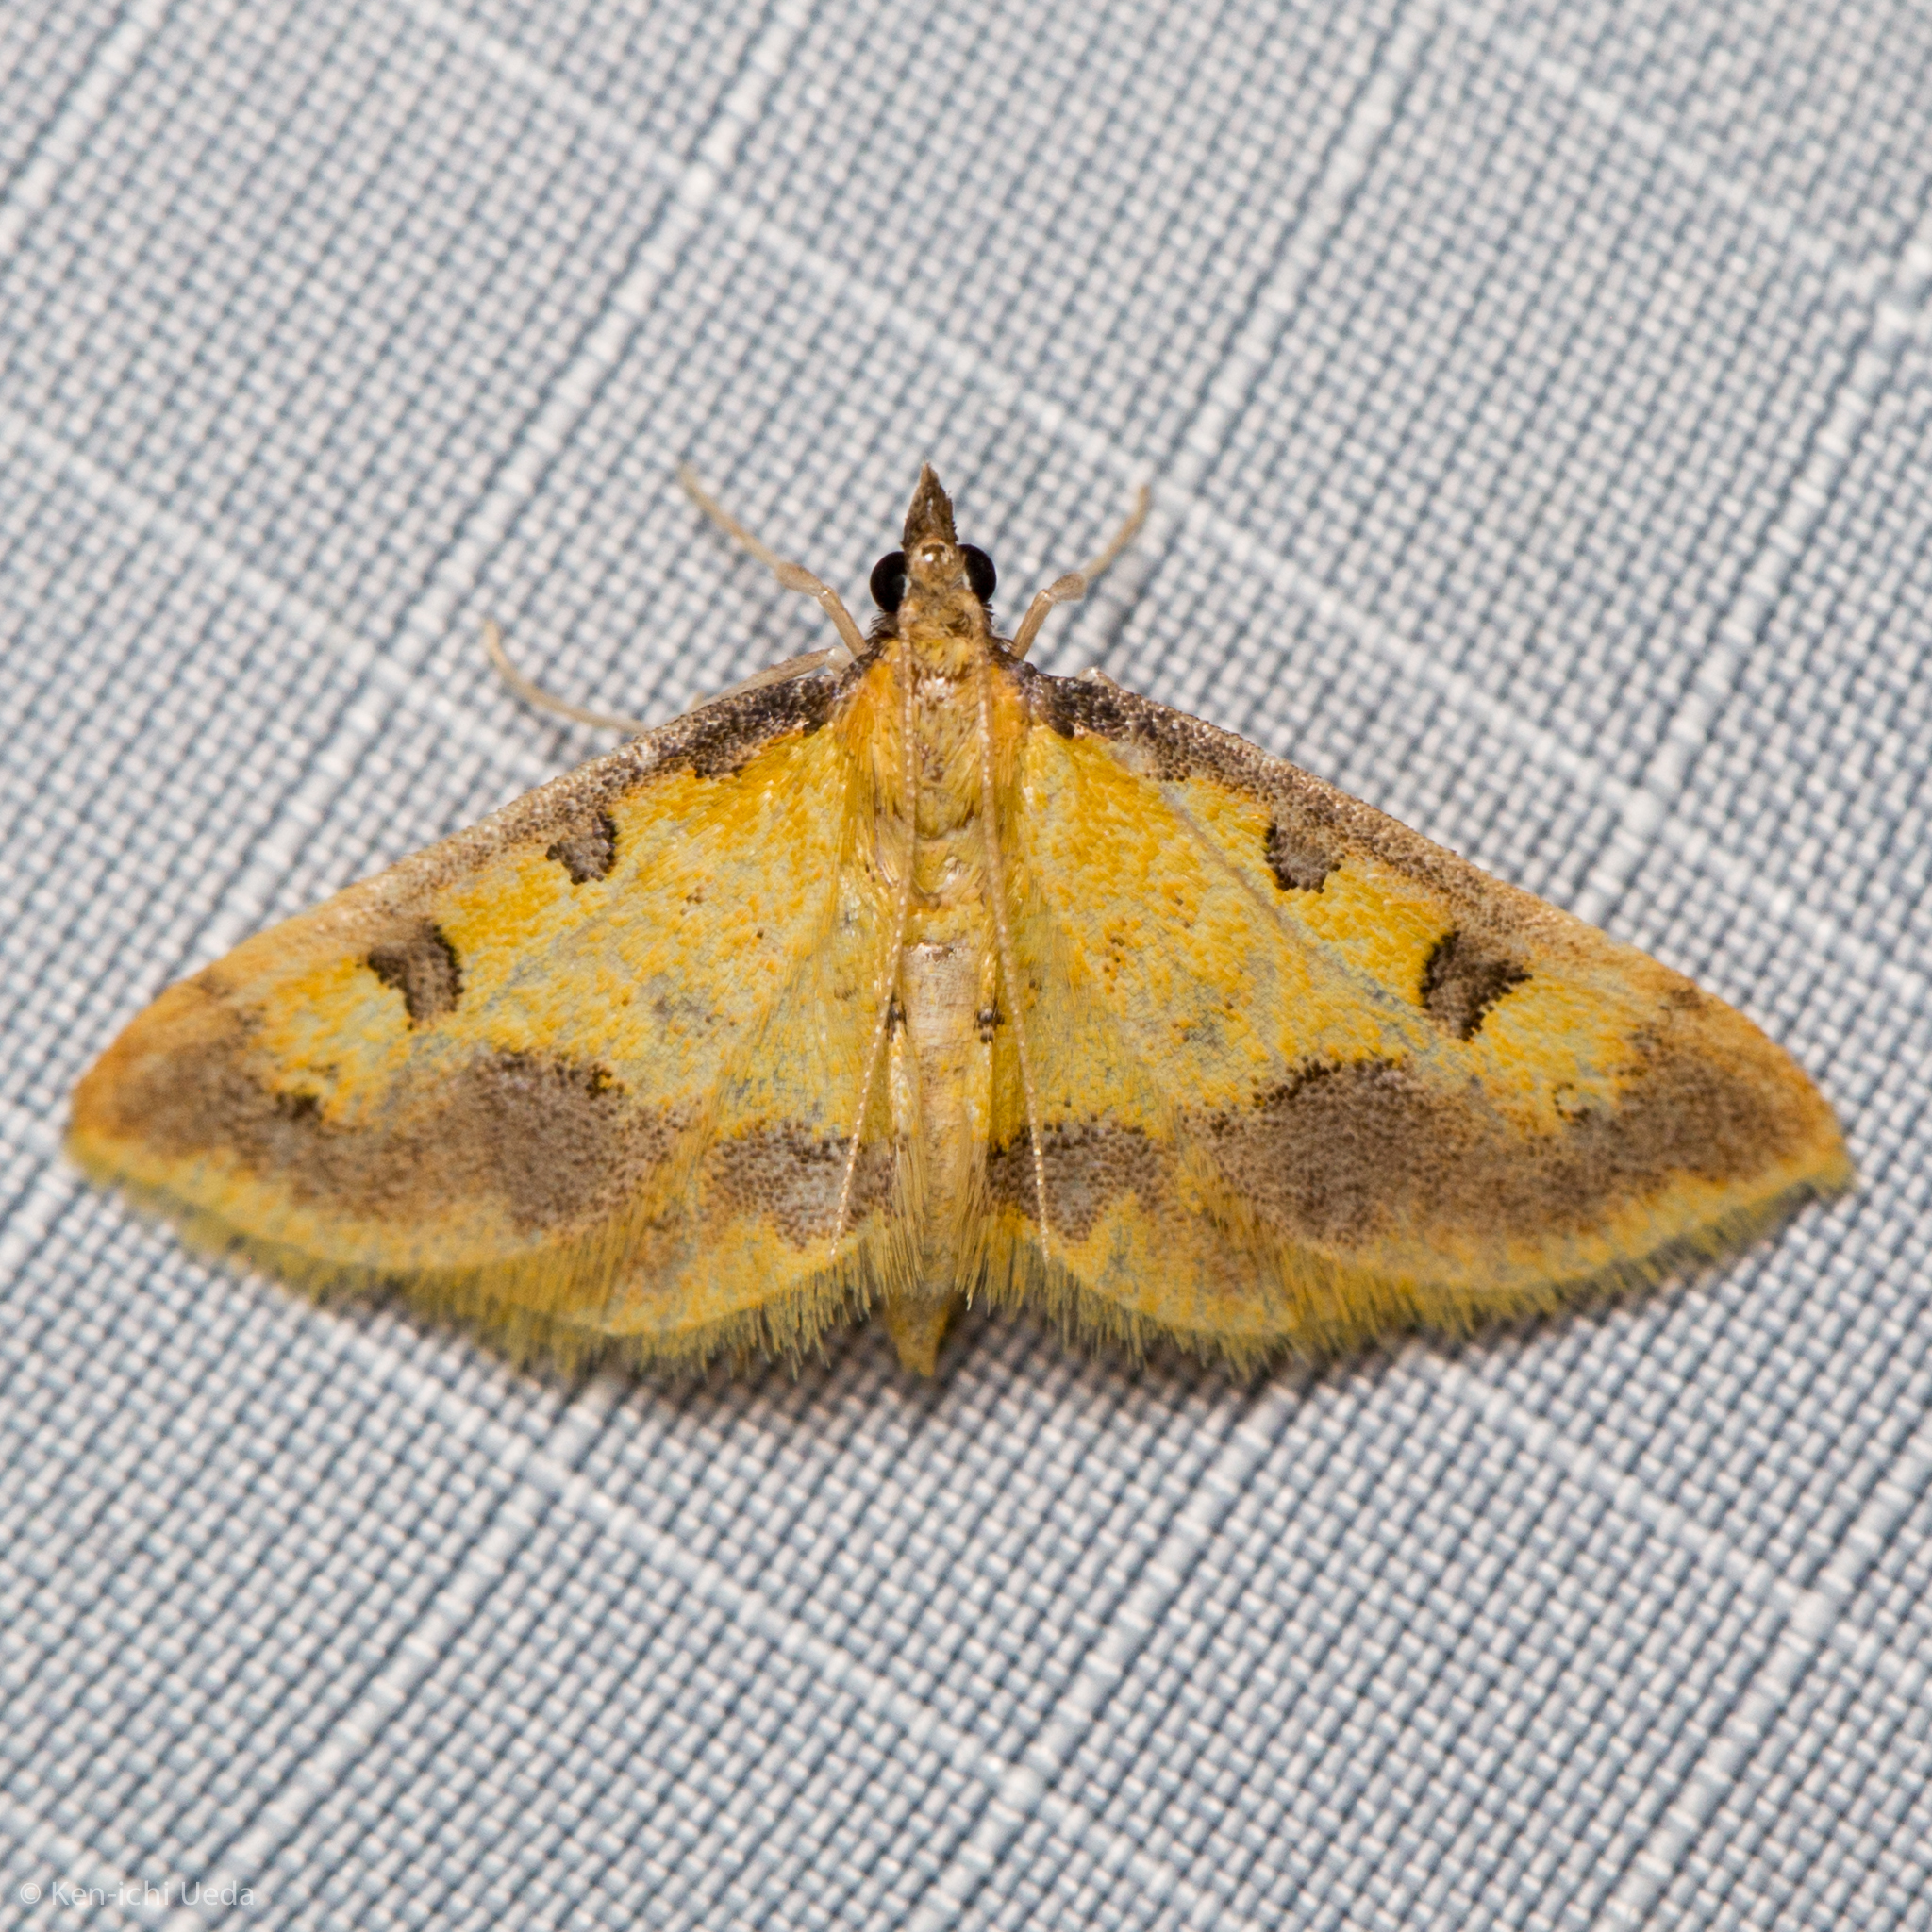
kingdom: Animalia
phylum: Arthropoda
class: Insecta
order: Lepidoptera
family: Crambidae
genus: Choristostigma
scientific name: Choristostigma zephyralis
